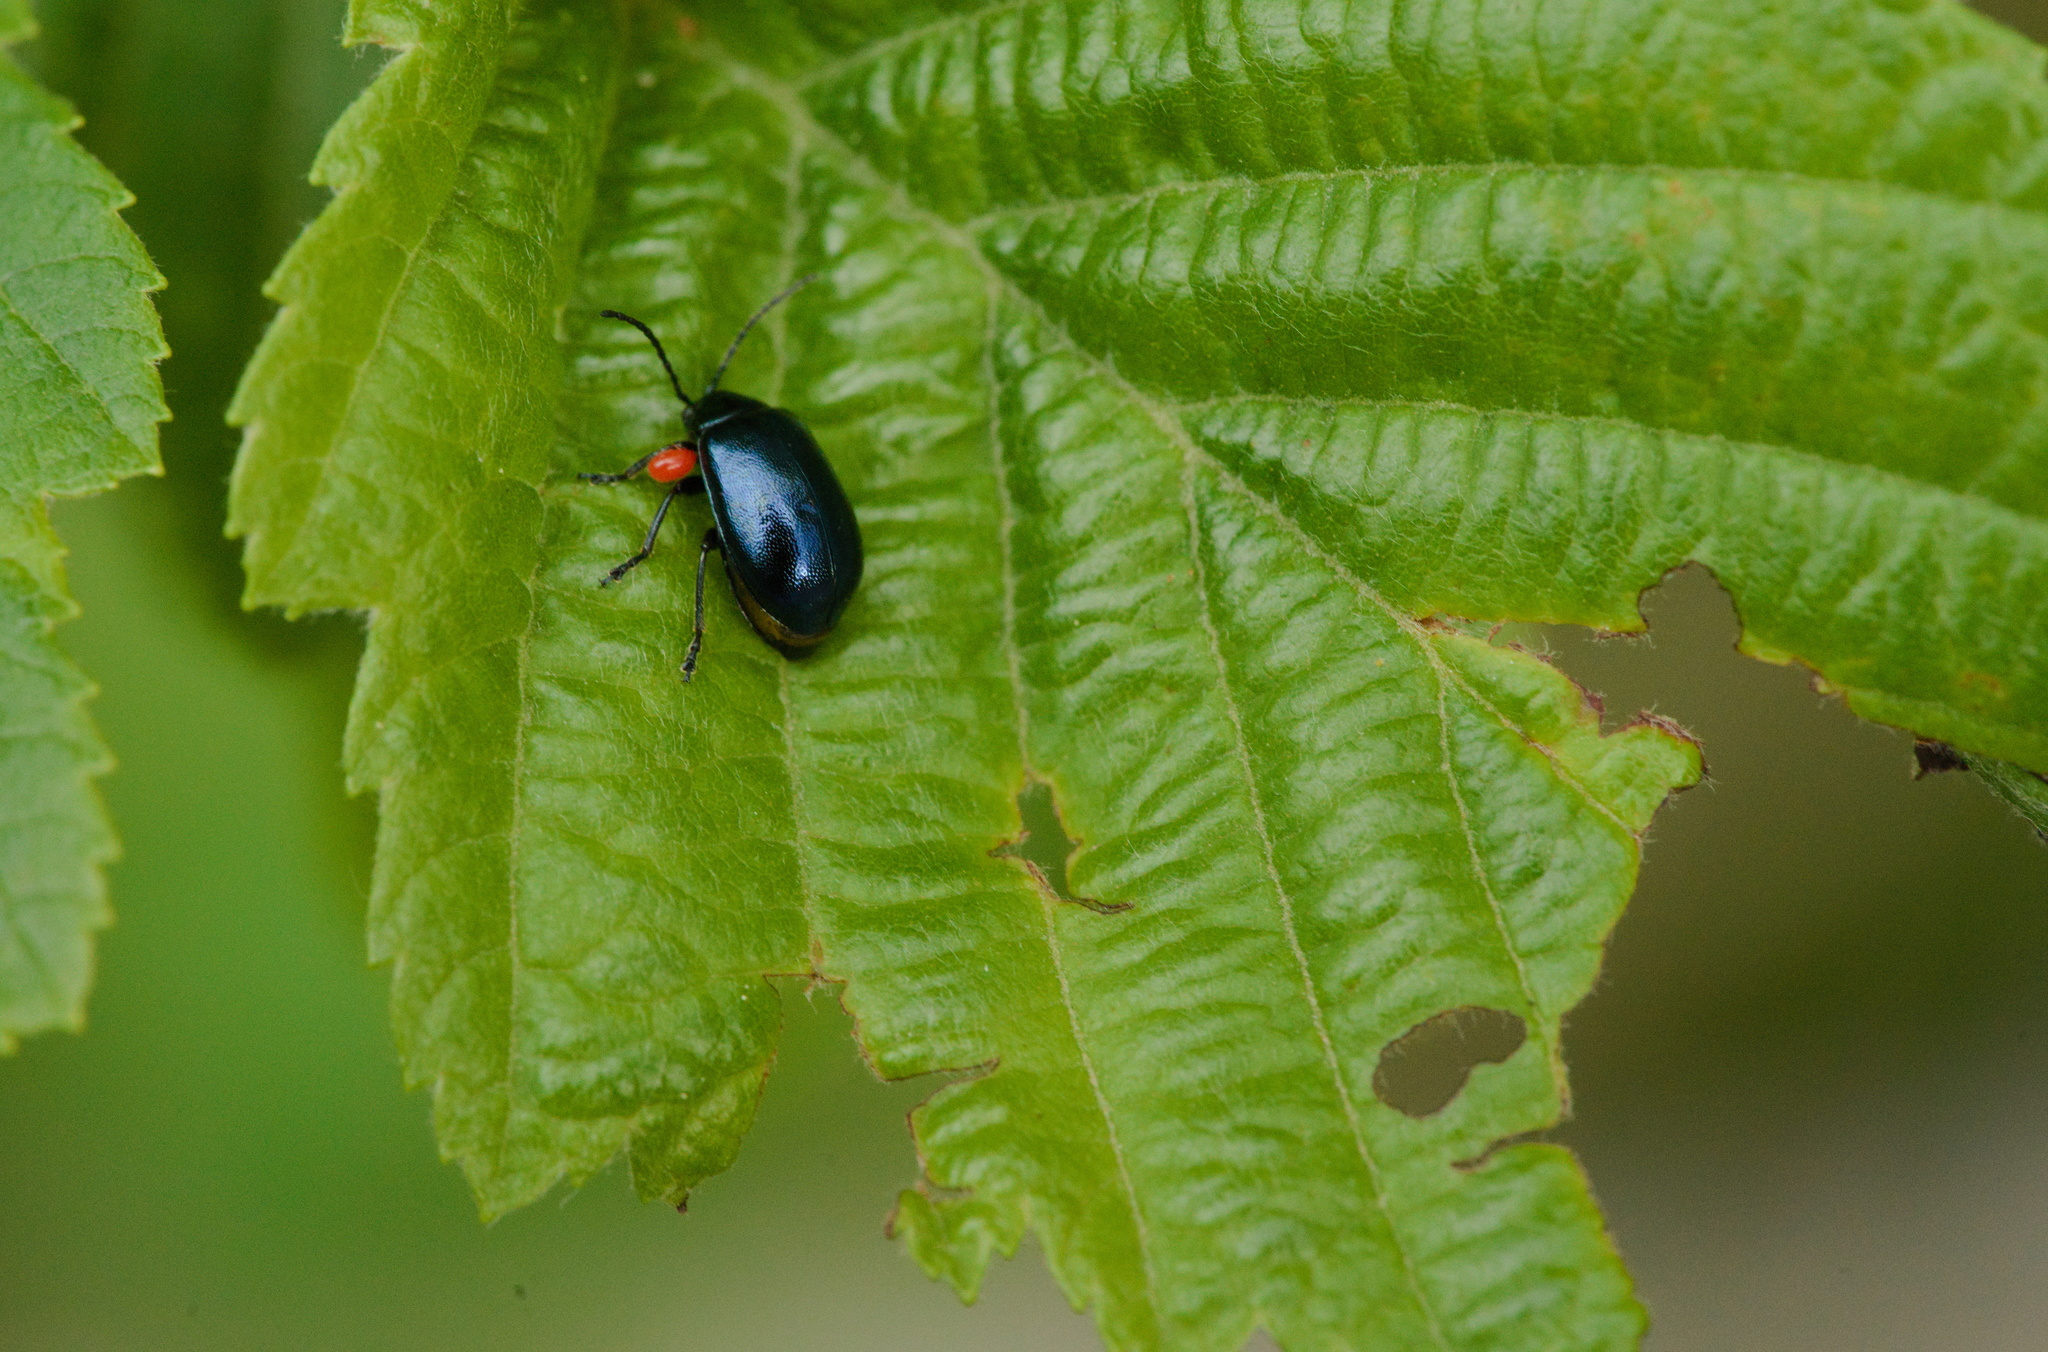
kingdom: Animalia
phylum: Arthropoda
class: Insecta
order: Coleoptera
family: Chrysomelidae
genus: Agelastica
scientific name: Agelastica alni
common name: Alder leaf beetle
